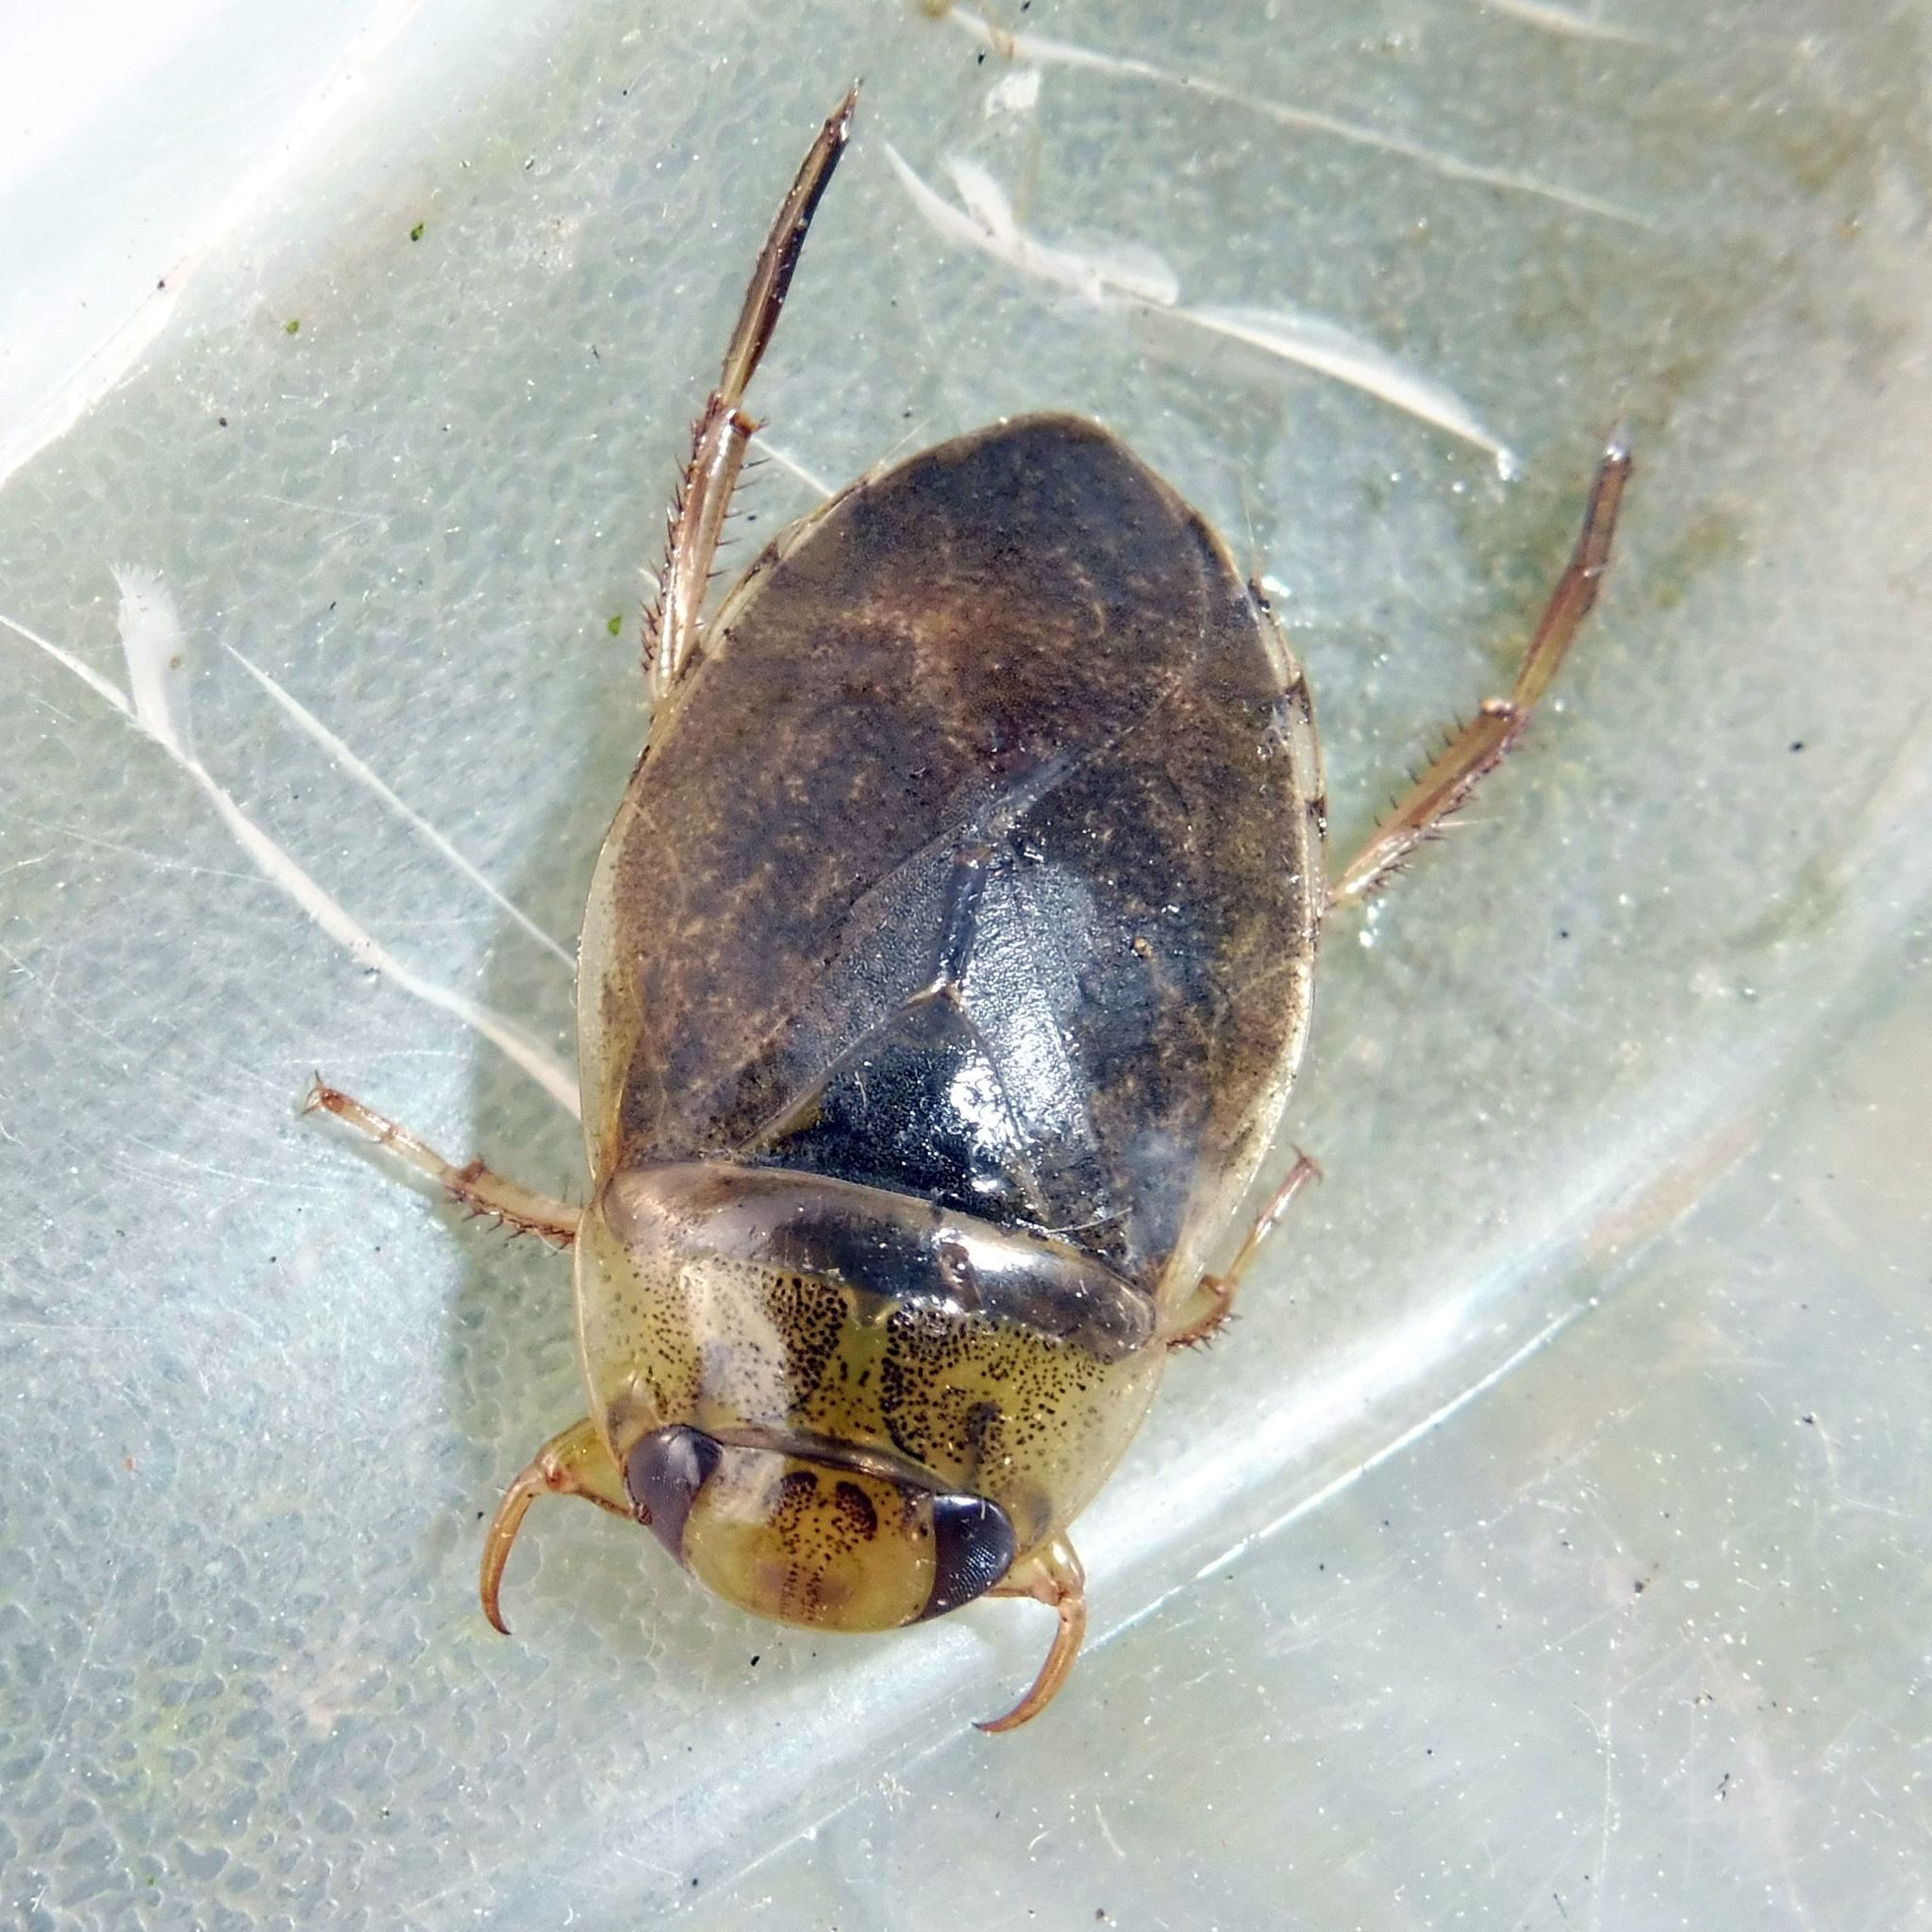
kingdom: Animalia
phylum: Arthropoda
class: Insecta
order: Hemiptera
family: Naucoridae
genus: Ilyocoris
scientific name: Ilyocoris cimicoides
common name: Saucer bugs
